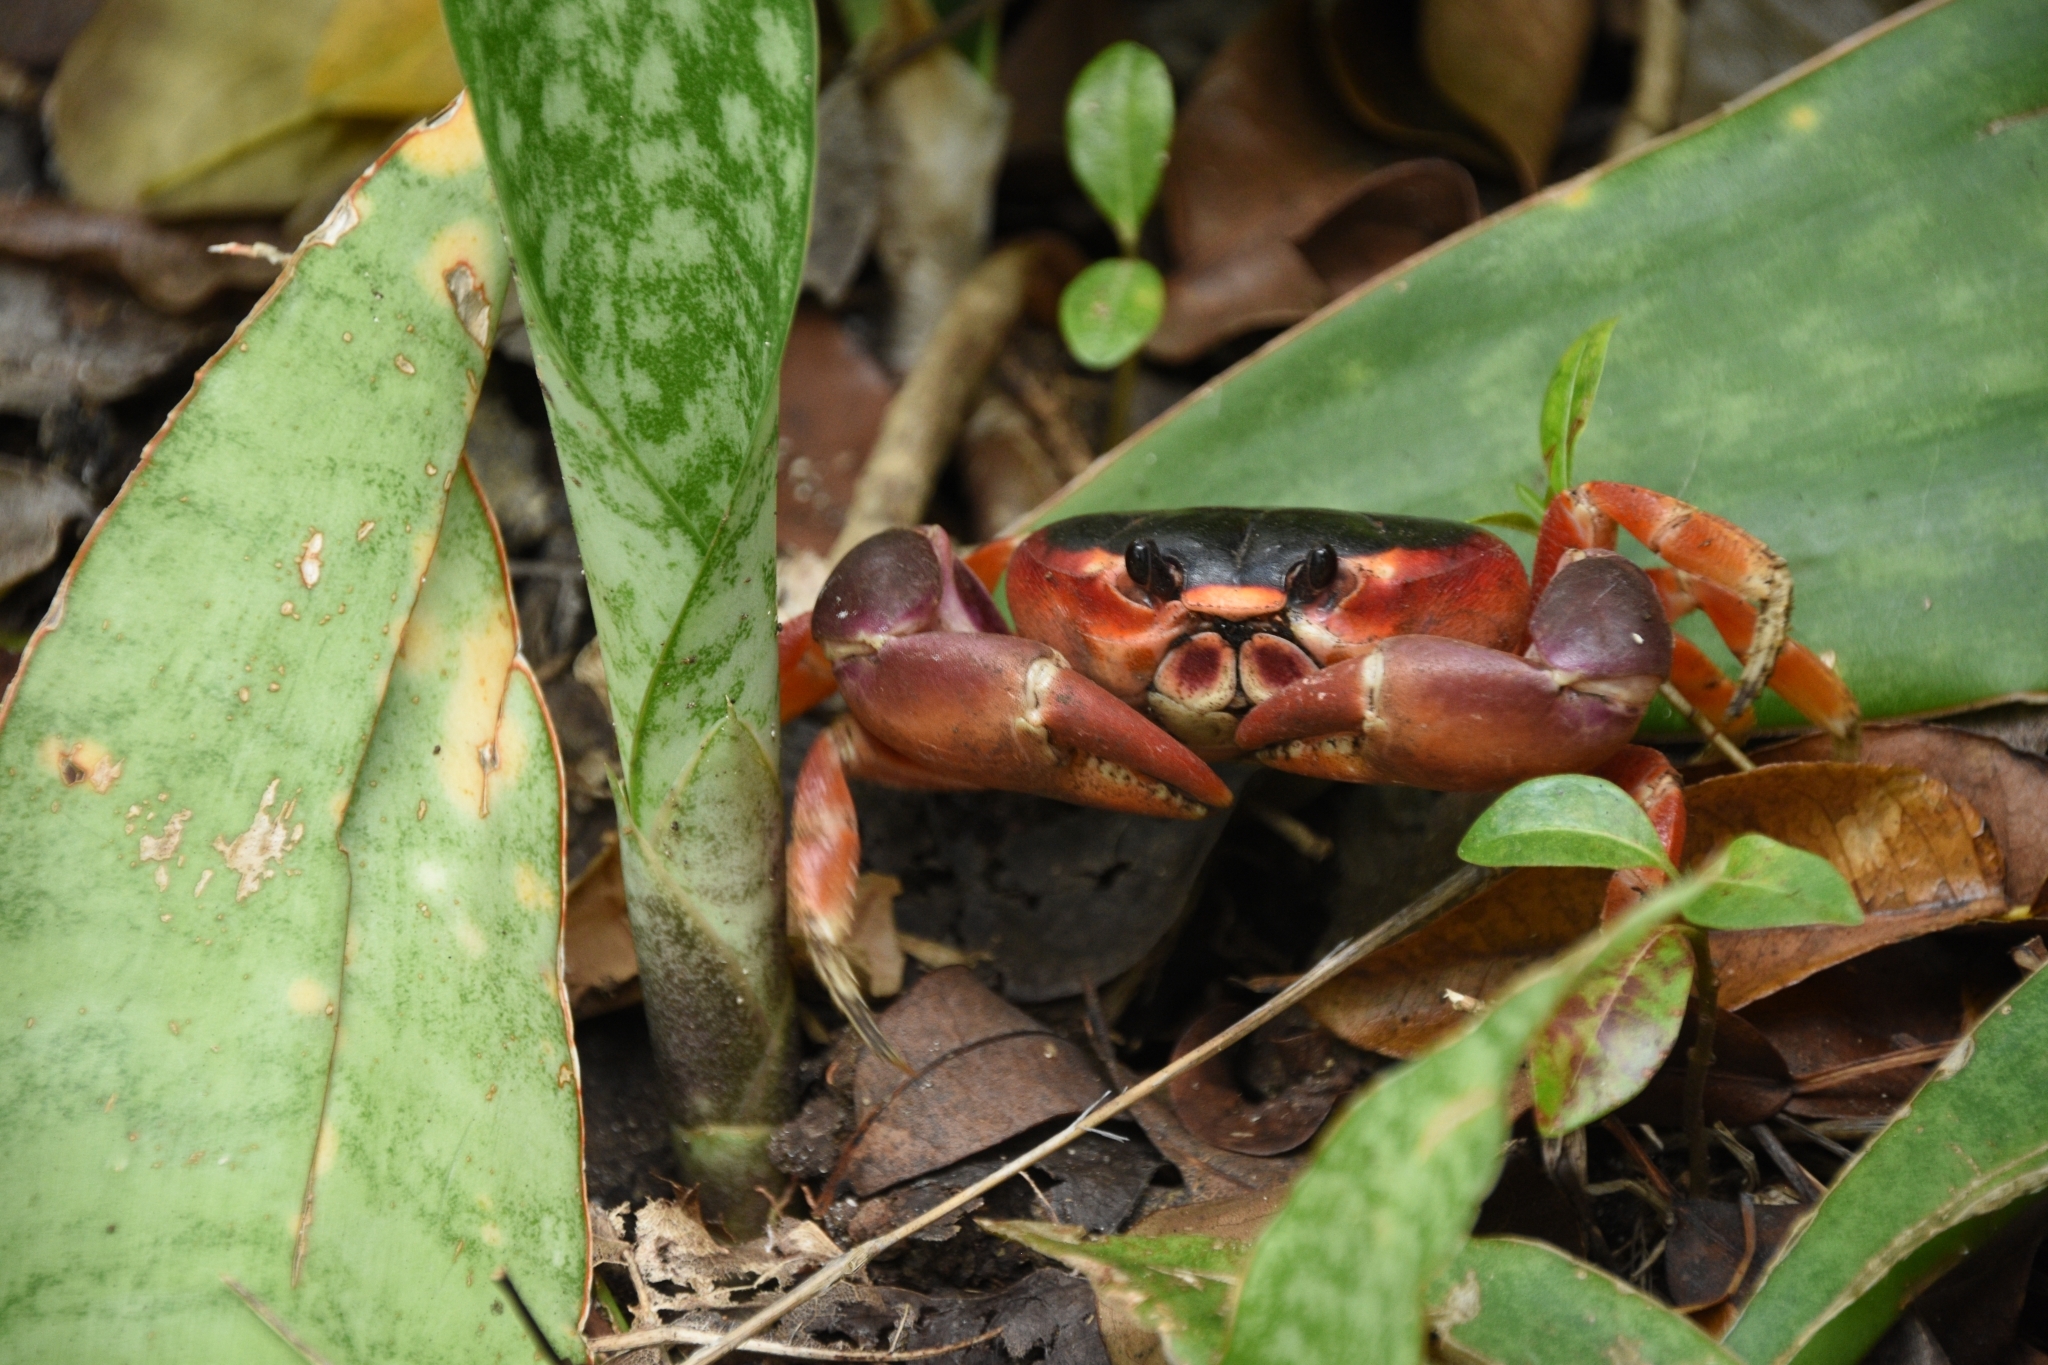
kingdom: Animalia
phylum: Arthropoda
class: Malacostraca
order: Decapoda
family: Gecarcinidae
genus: Gecarcinus
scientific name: Gecarcinus lateralis
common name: Bermuda land crab
